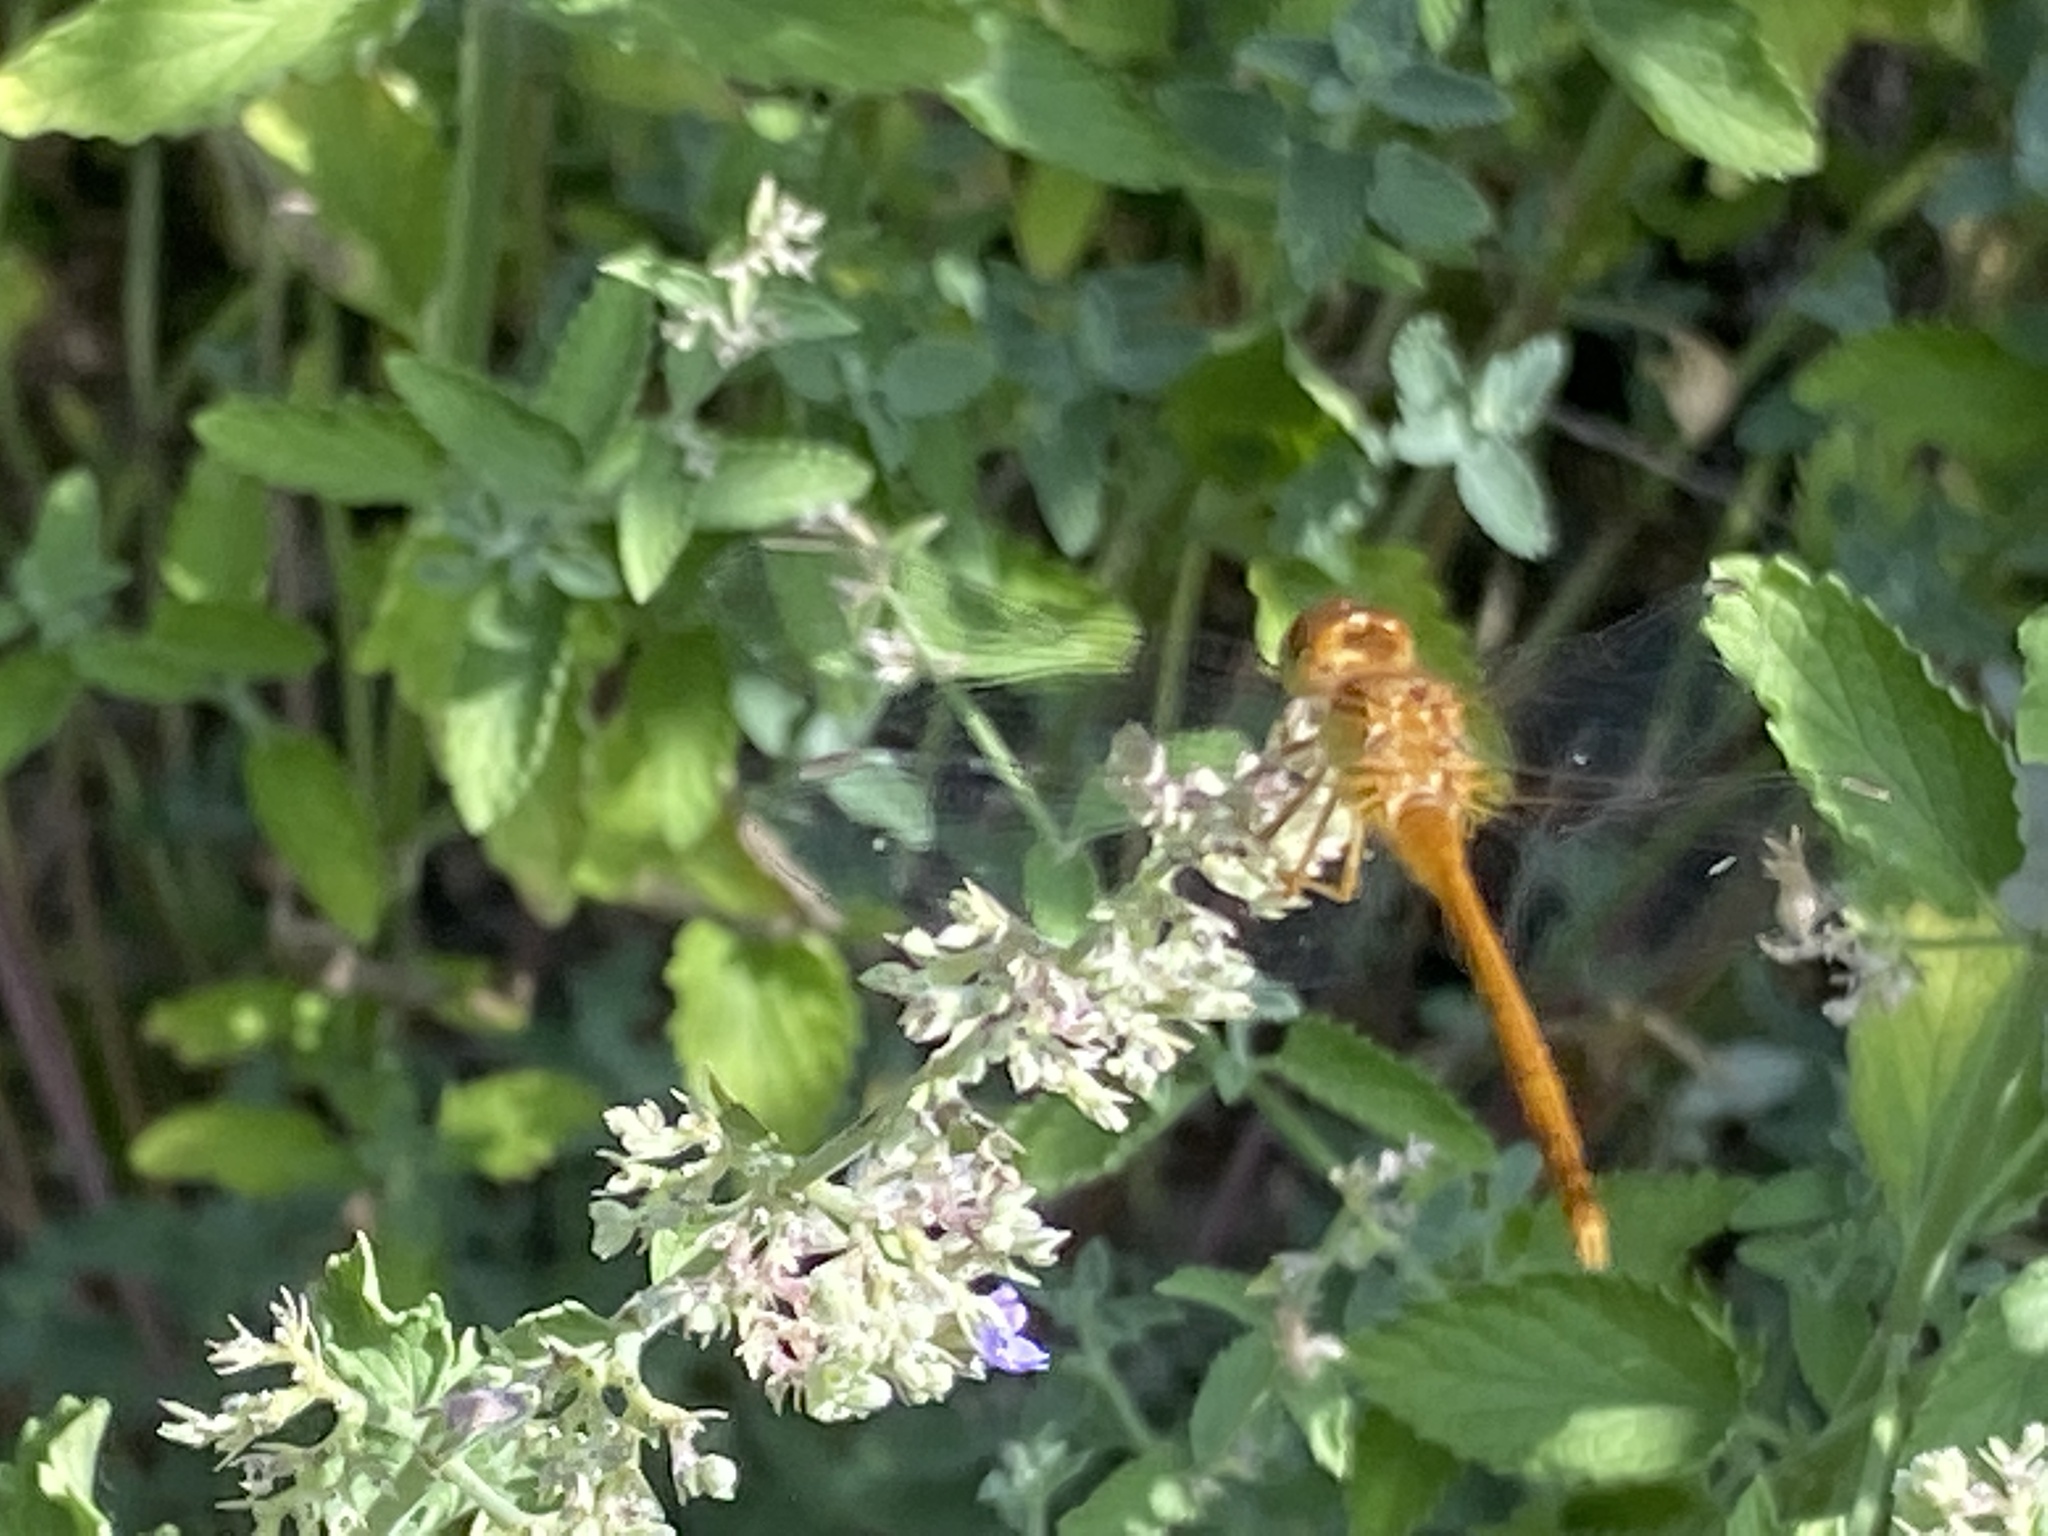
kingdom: Animalia
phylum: Arthropoda
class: Insecta
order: Odonata
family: Libellulidae
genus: Sympetrum
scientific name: Sympetrum vicinum
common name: Autumn meadowhawk
